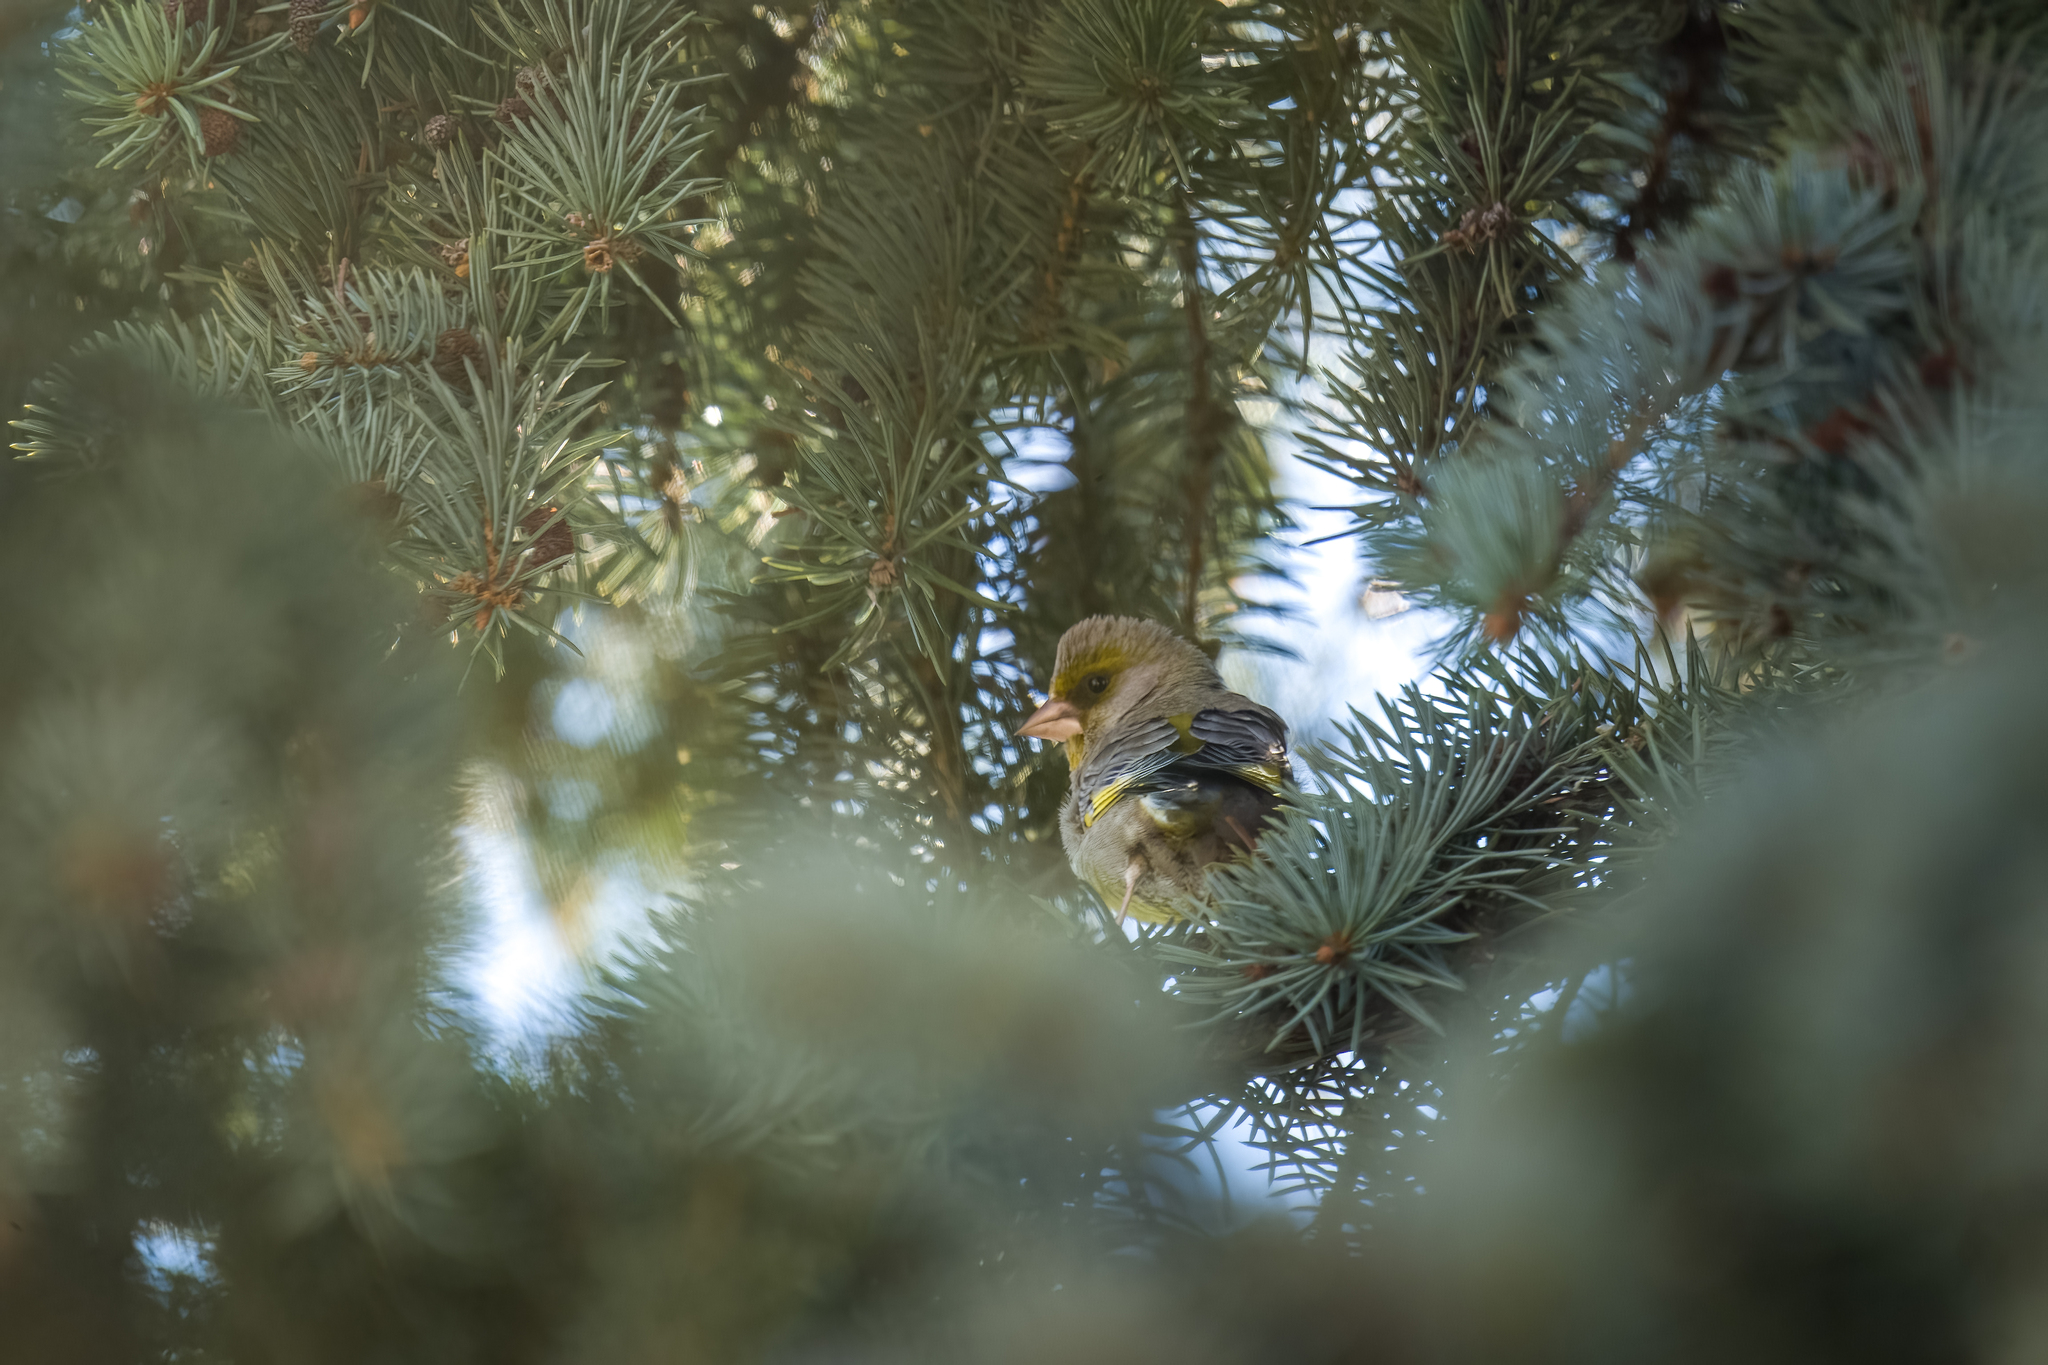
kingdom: Plantae
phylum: Tracheophyta
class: Liliopsida
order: Poales
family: Poaceae
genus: Chloris
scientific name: Chloris chloris
